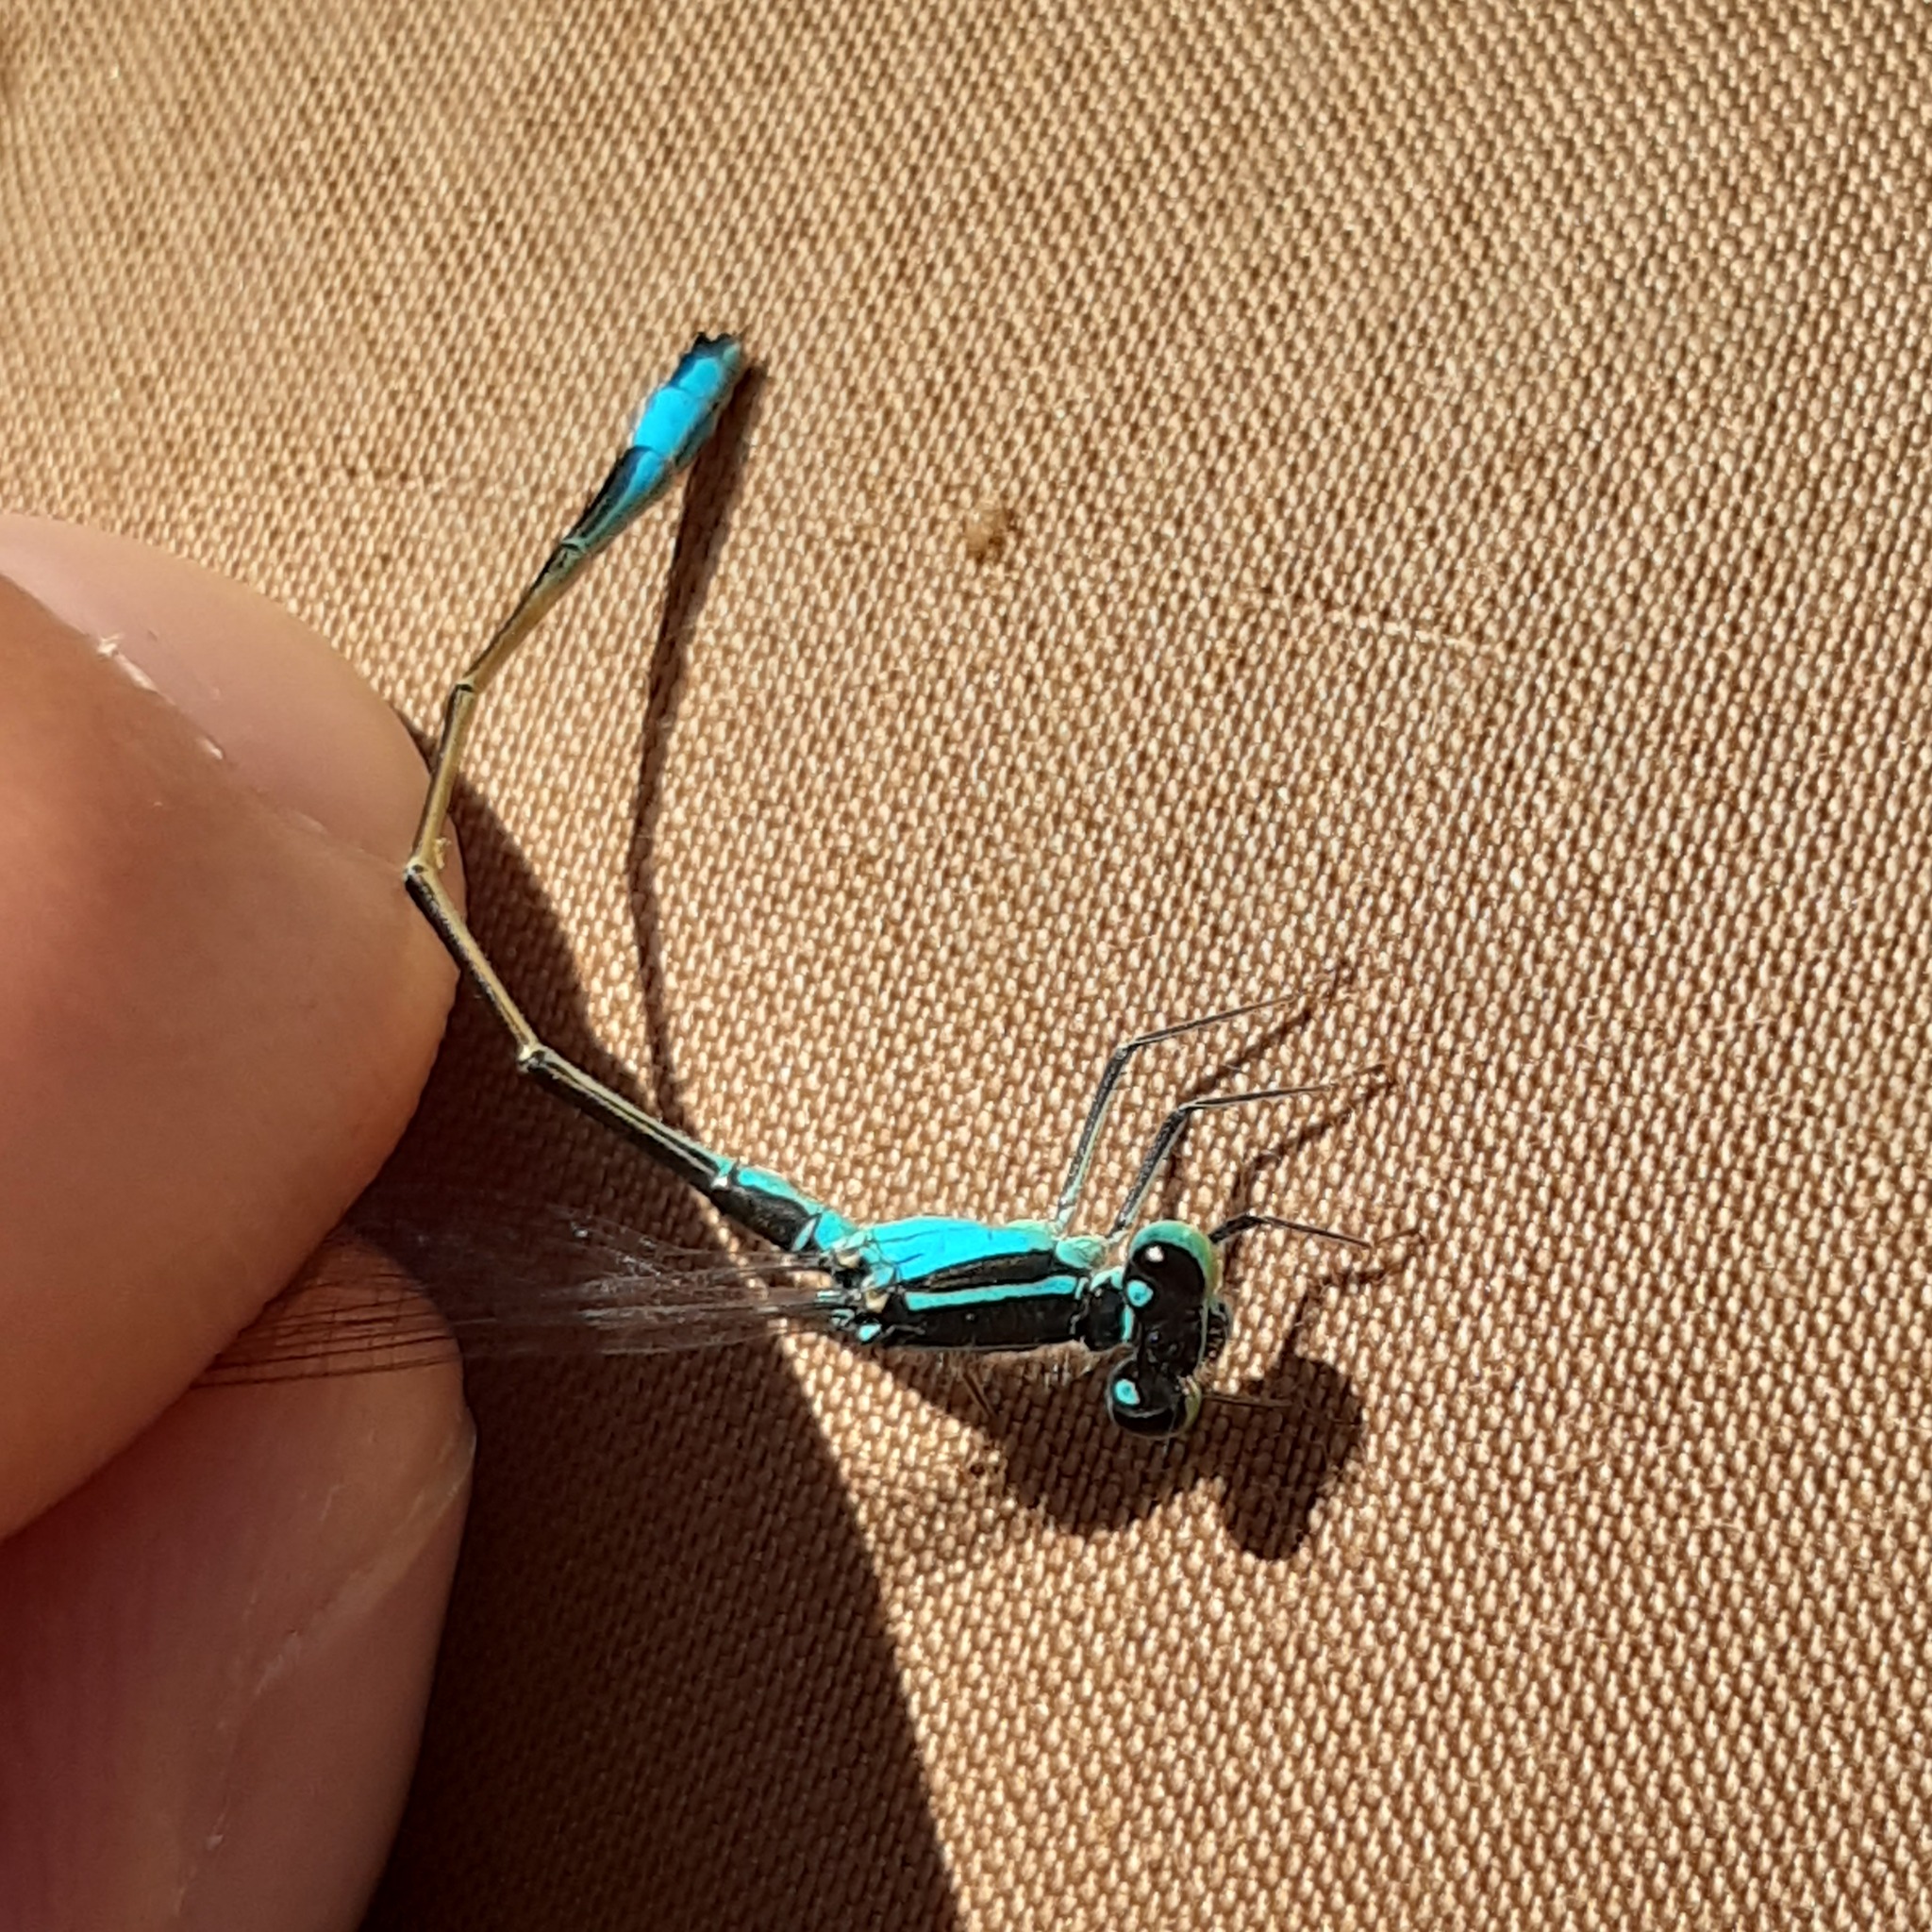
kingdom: Animalia
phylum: Arthropoda
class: Insecta
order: Odonata
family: Coenagrionidae
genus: Ischnura
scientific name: Ischnura elegans
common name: Blue-tailed damselfly
